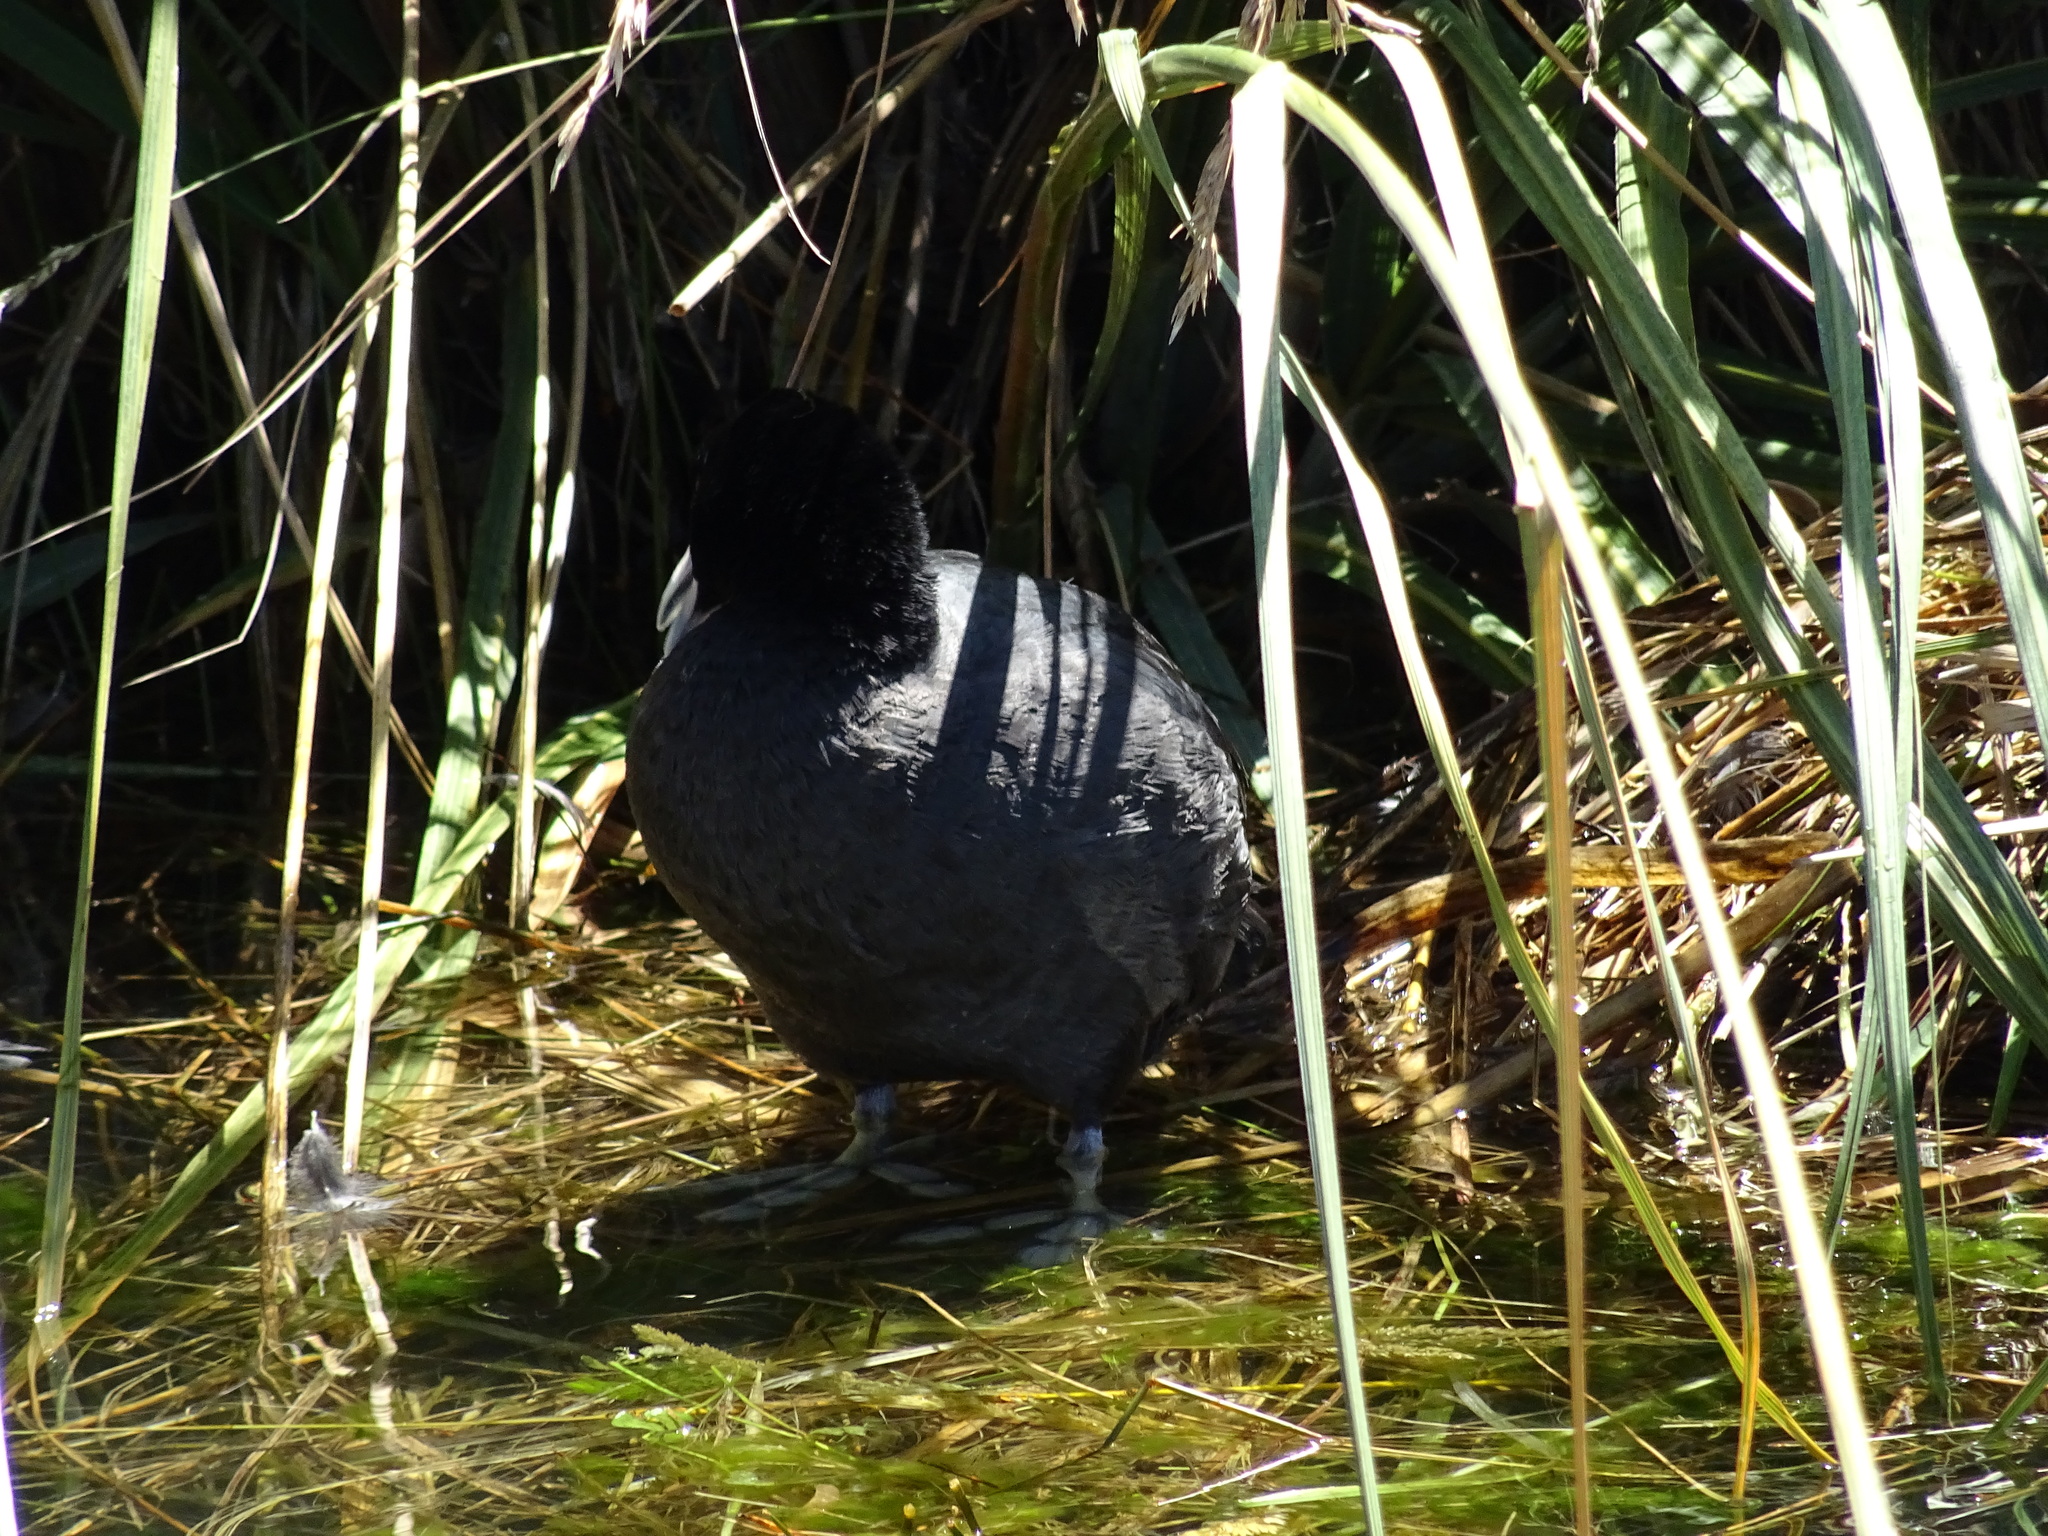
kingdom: Animalia
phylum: Chordata
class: Aves
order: Gruiformes
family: Rallidae
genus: Fulica
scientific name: Fulica atra
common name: Eurasian coot
